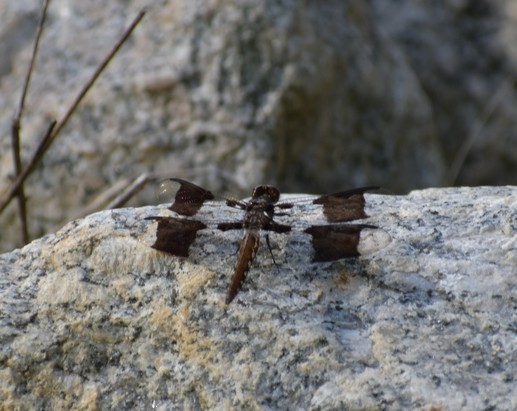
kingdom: Animalia
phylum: Arthropoda
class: Insecta
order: Odonata
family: Libellulidae
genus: Plathemis
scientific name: Plathemis lydia
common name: Common whitetail
